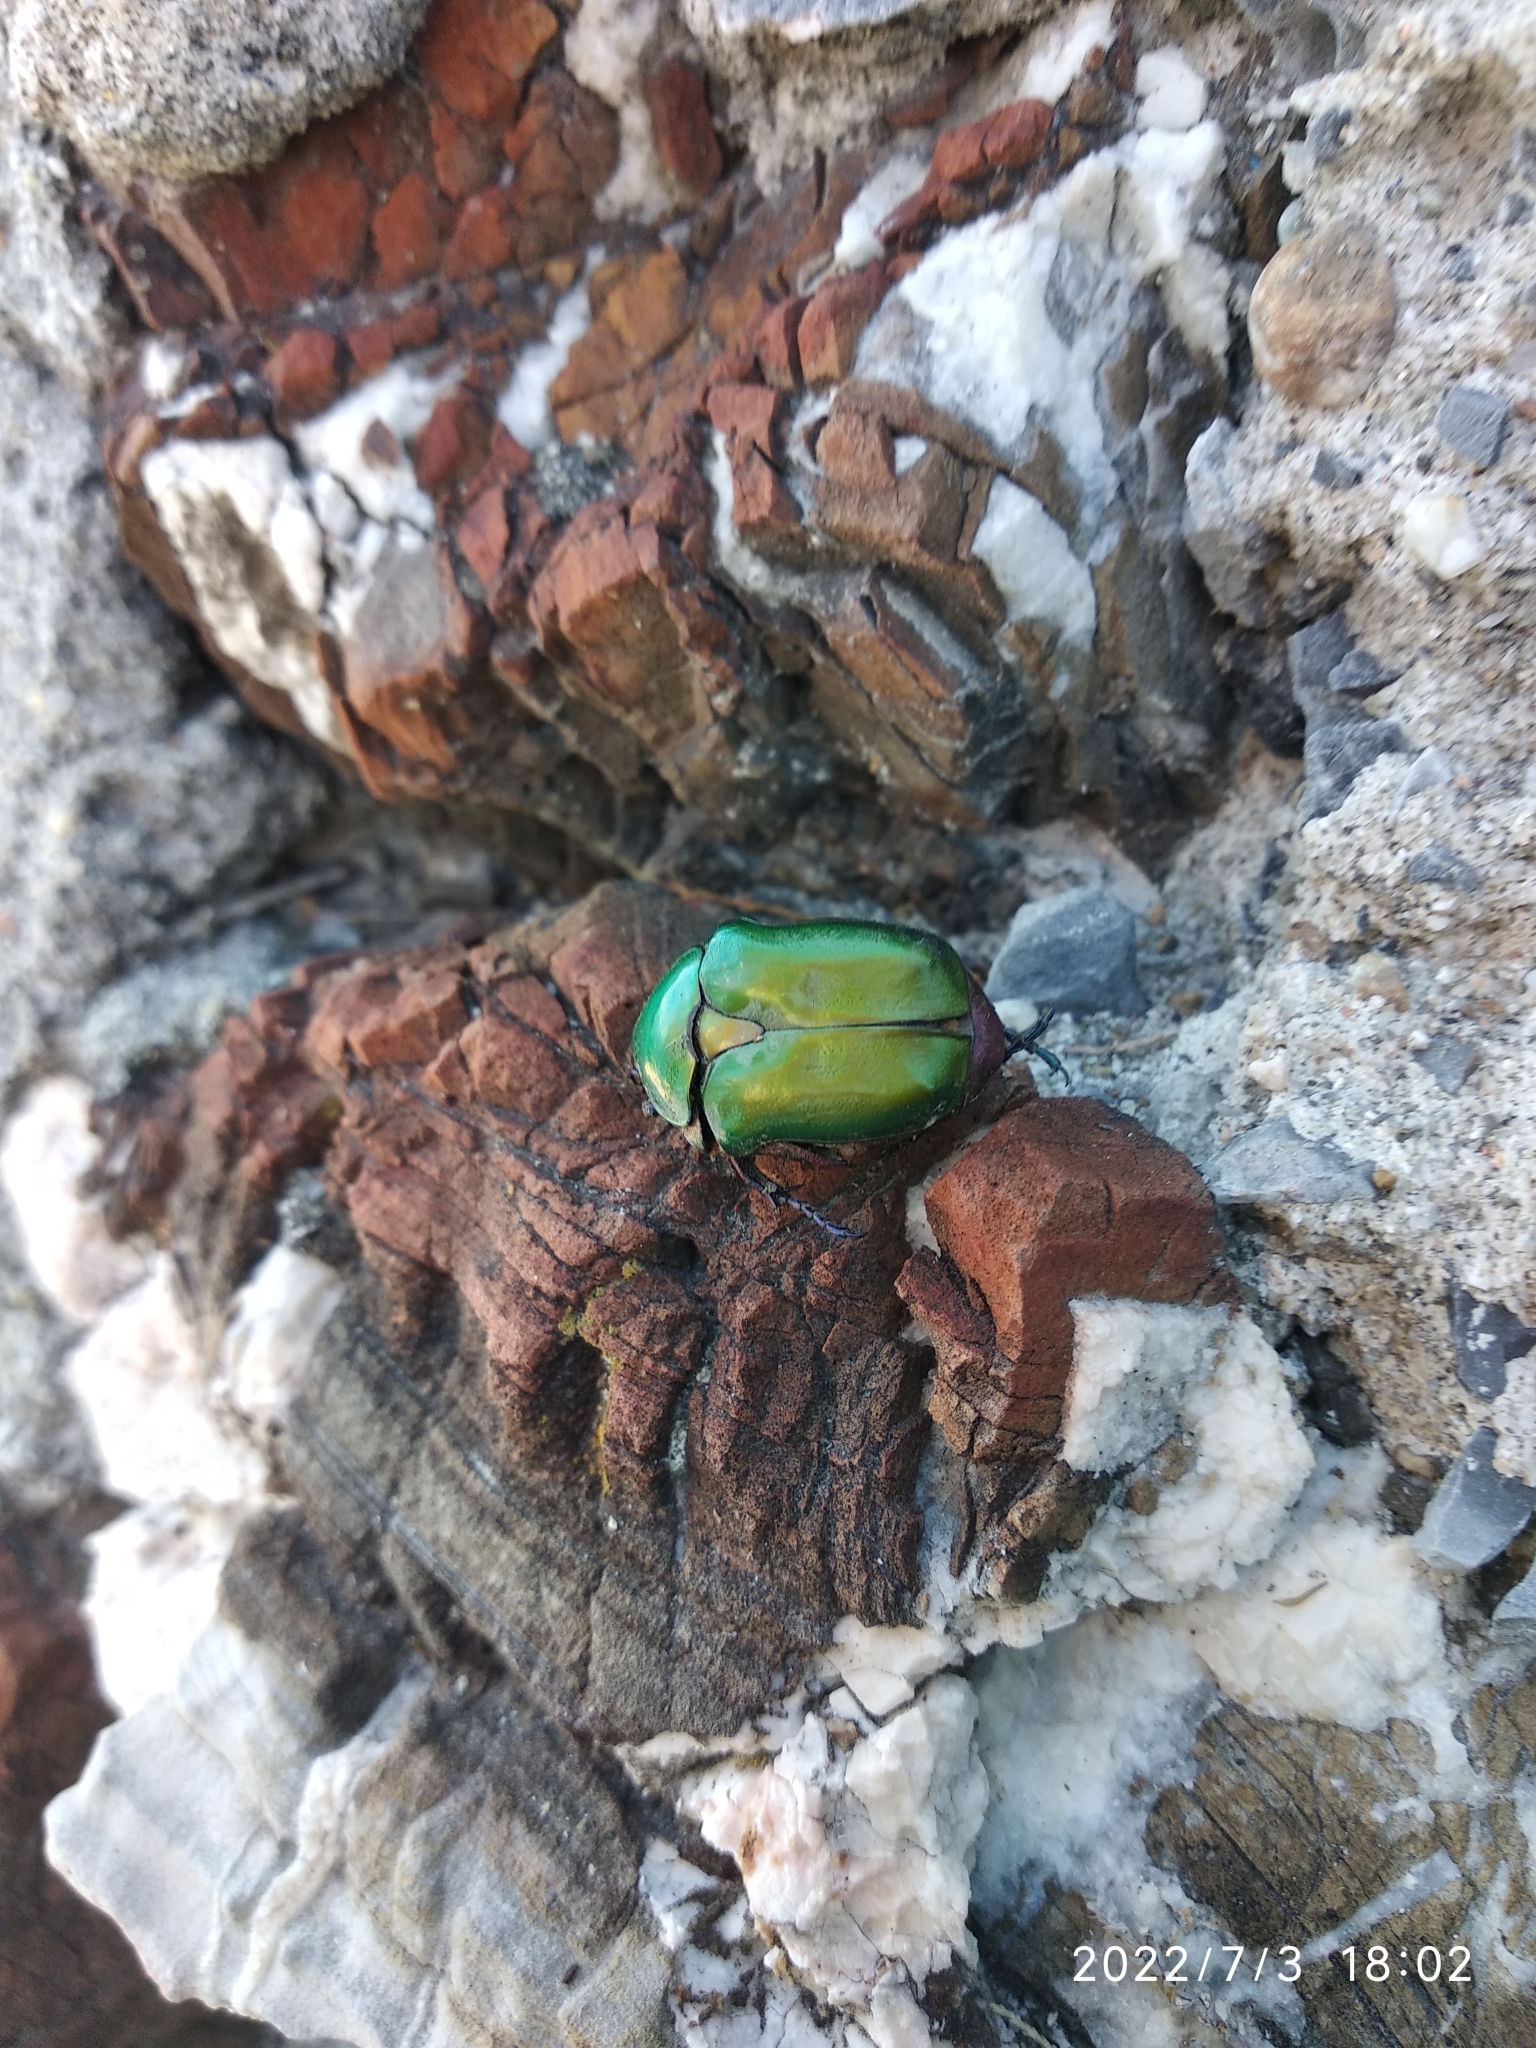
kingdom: Animalia
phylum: Arthropoda
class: Insecta
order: Coleoptera
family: Scarabaeidae
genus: Protaetia
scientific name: Protaetia cuprea
